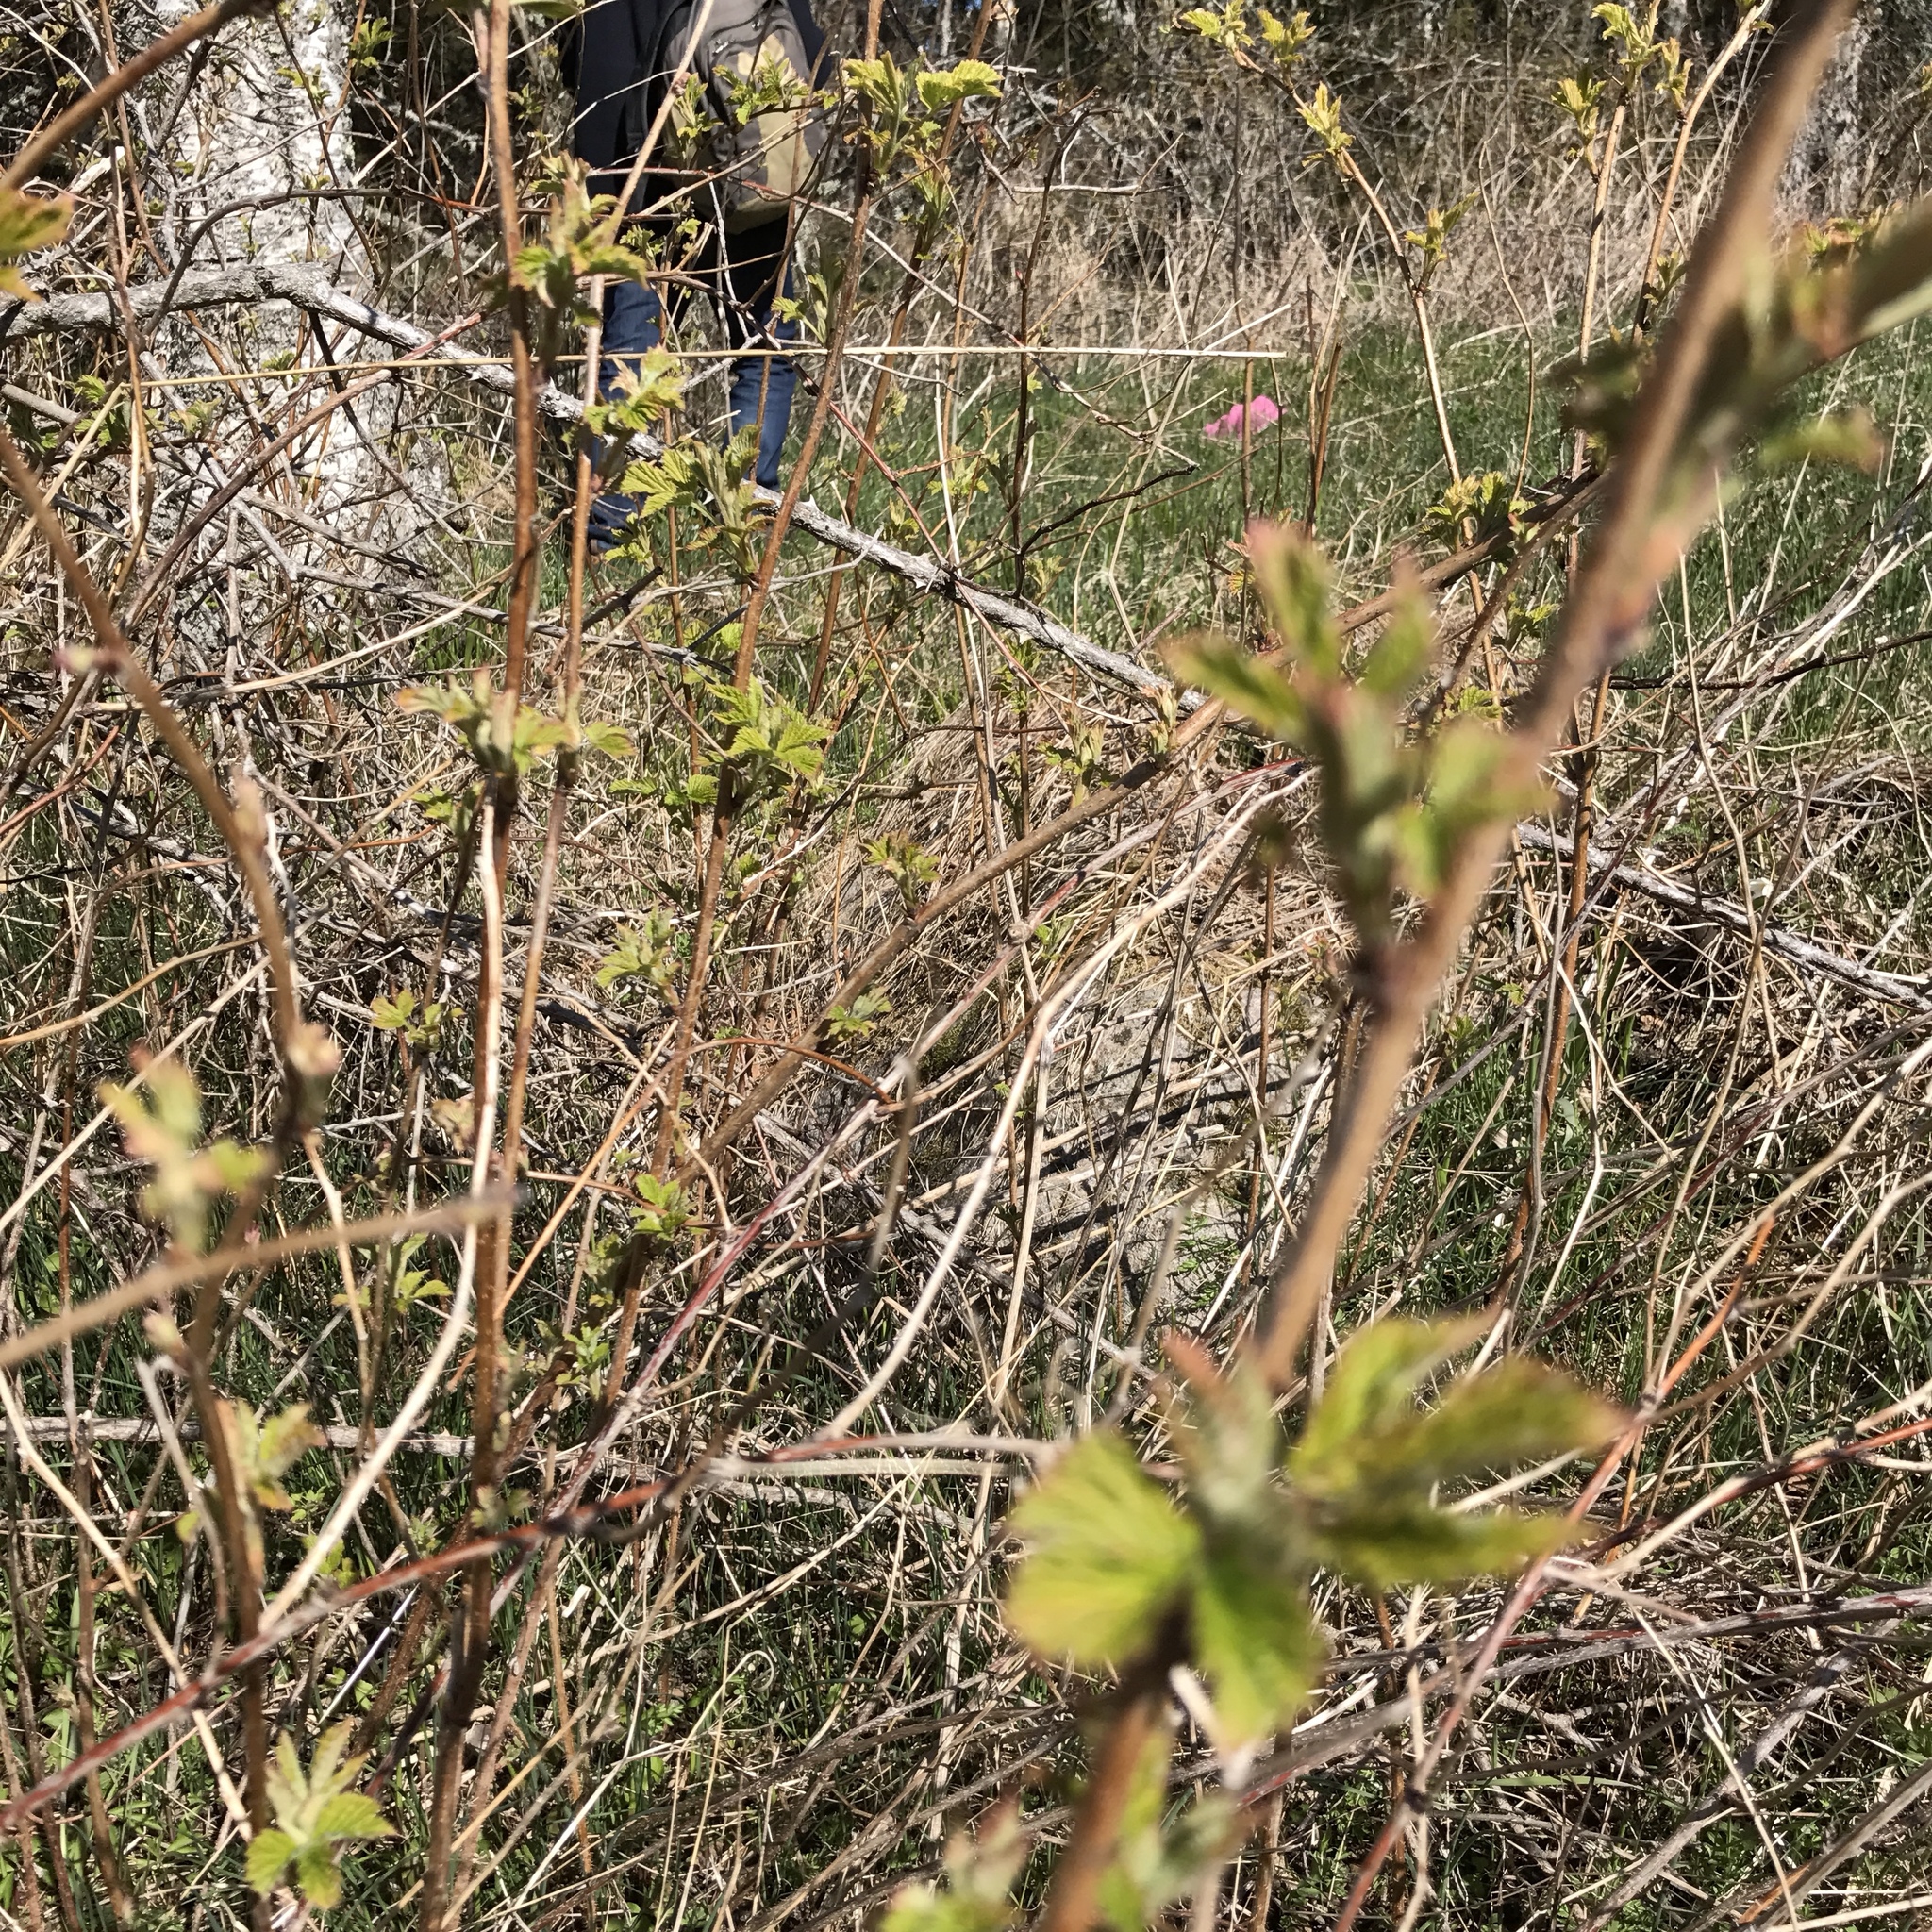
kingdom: Plantae
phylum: Tracheophyta
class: Magnoliopsida
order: Rosales
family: Rosaceae
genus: Rubus
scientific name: Rubus idaeus
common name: Raspberry
